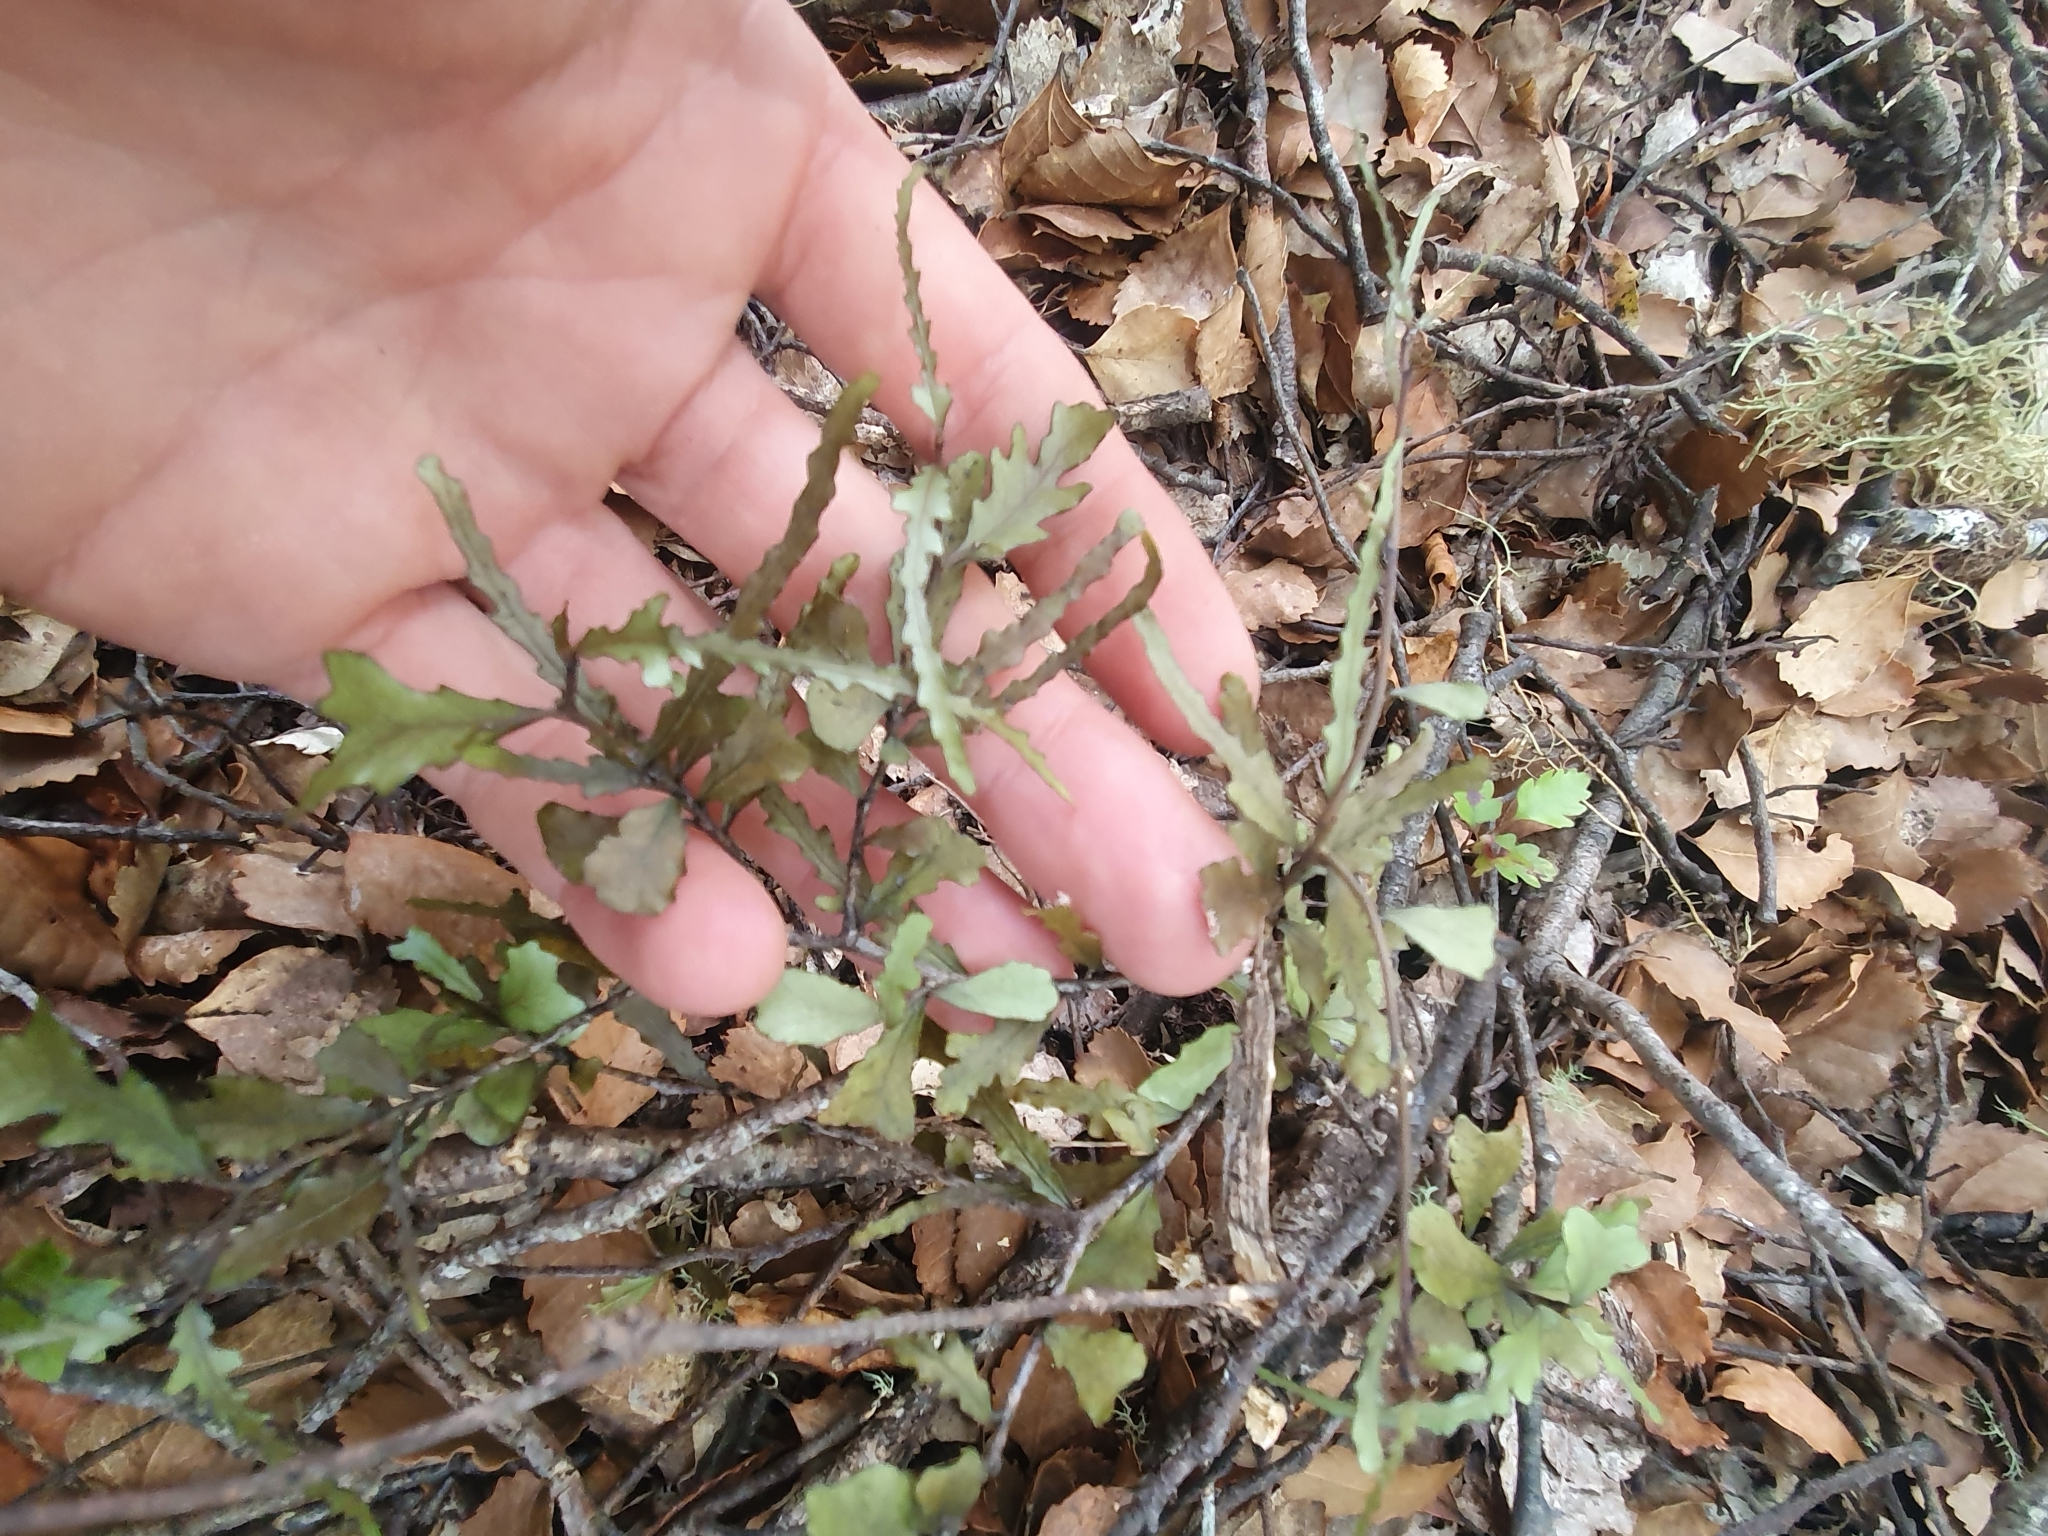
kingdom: Plantae
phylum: Tracheophyta
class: Magnoliopsida
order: Oxalidales
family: Elaeocarpaceae
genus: Elaeocarpus
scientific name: Elaeocarpus hookerianus
